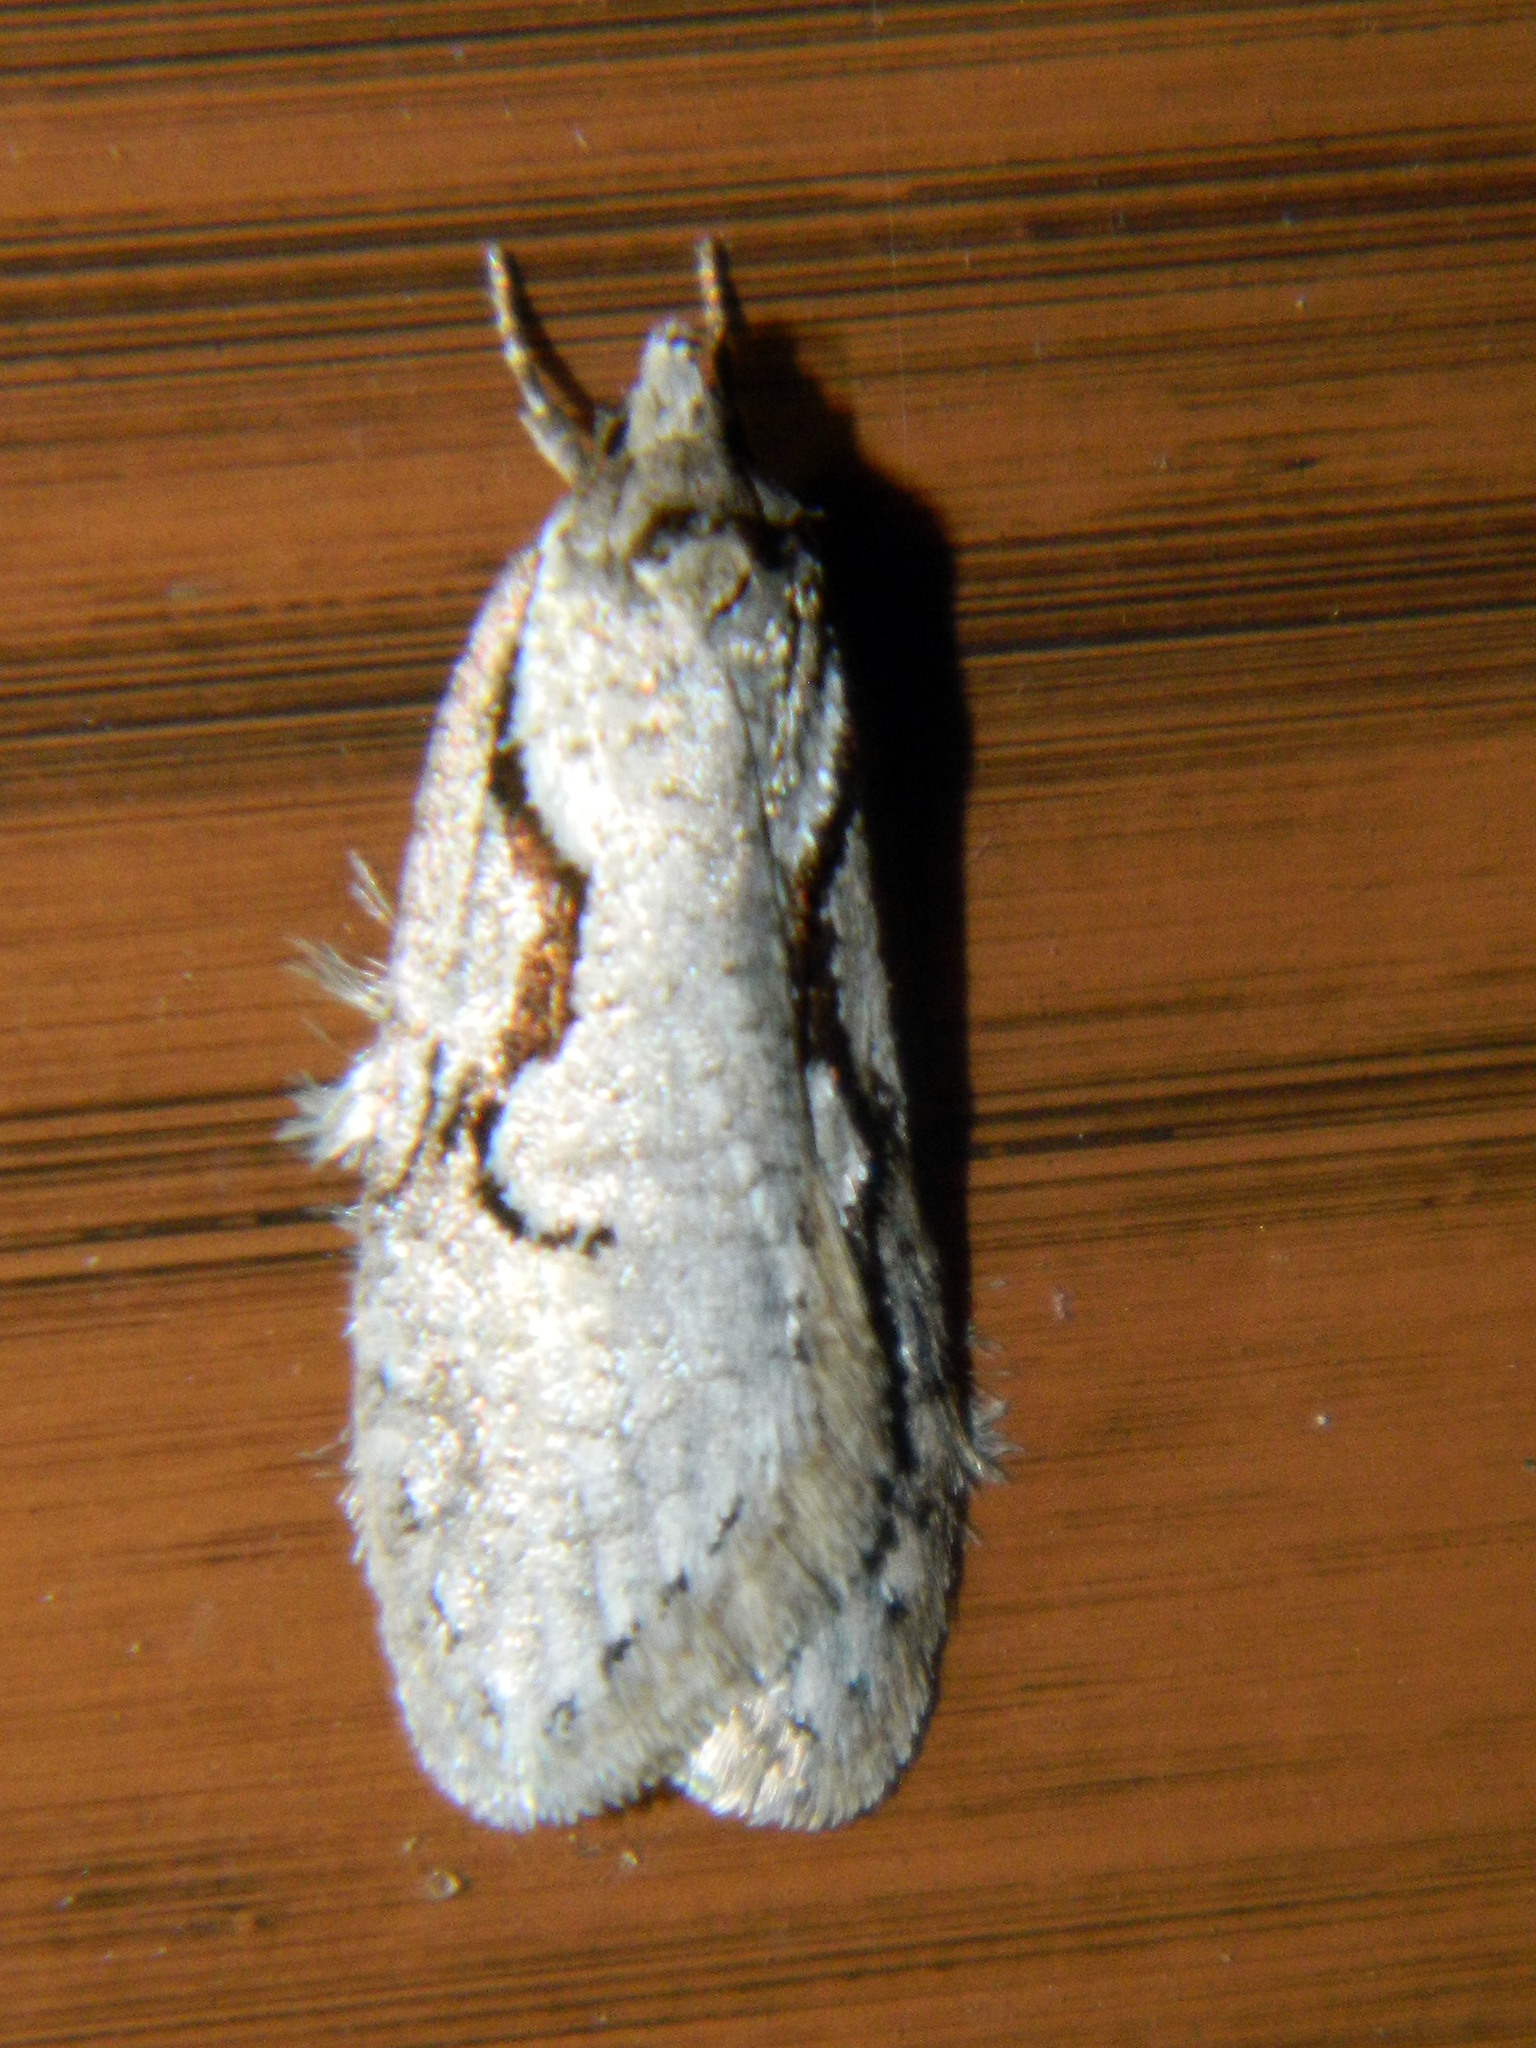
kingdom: Animalia
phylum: Arthropoda
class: Insecta
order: Lepidoptera
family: Depressariidae
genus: Semioscopis
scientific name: Semioscopis packardella
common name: Packard's concealer moth
